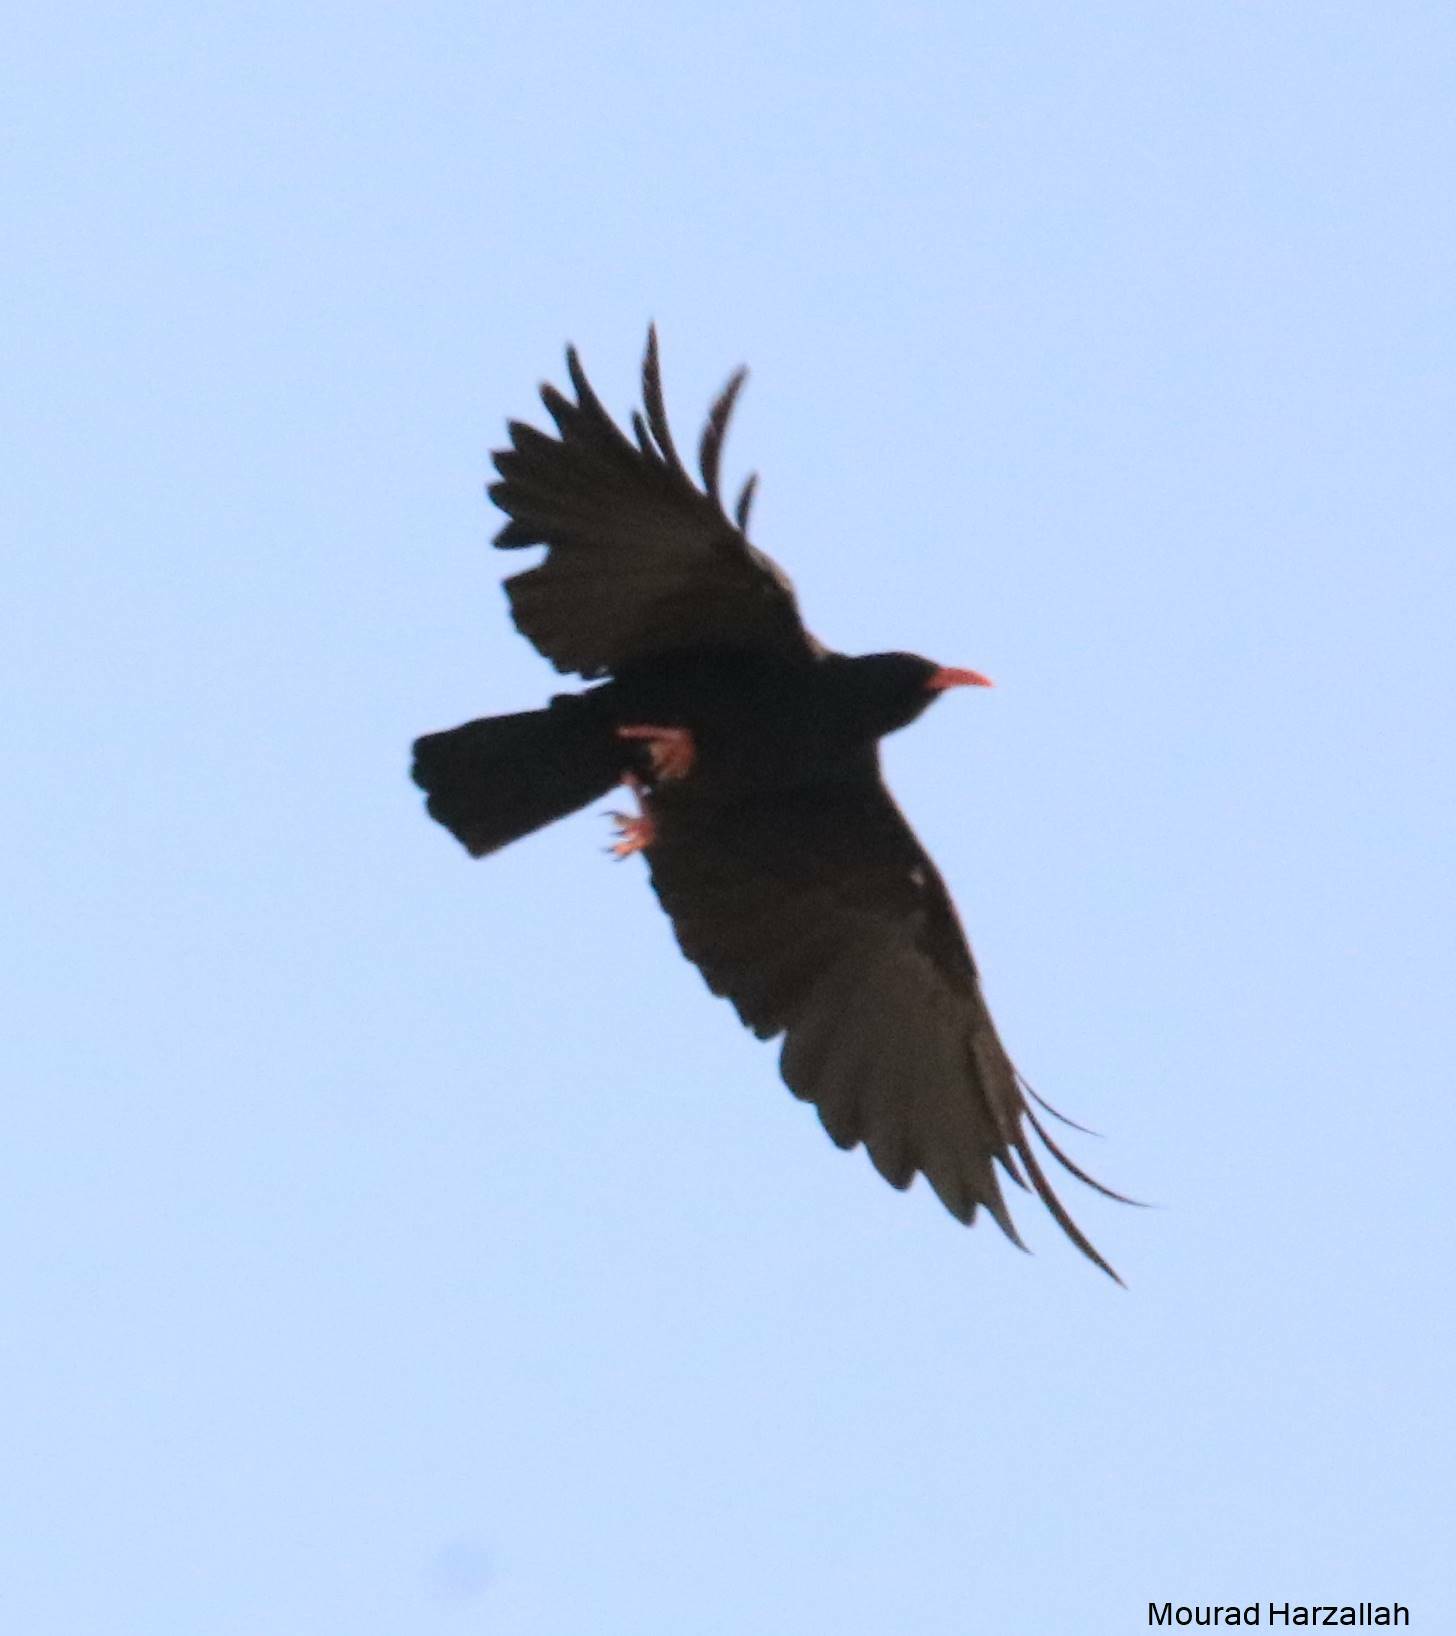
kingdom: Animalia
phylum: Chordata
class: Aves
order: Passeriformes
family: Corvidae
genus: Pyrrhocorax
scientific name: Pyrrhocorax pyrrhocorax
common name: Red-billed chough
